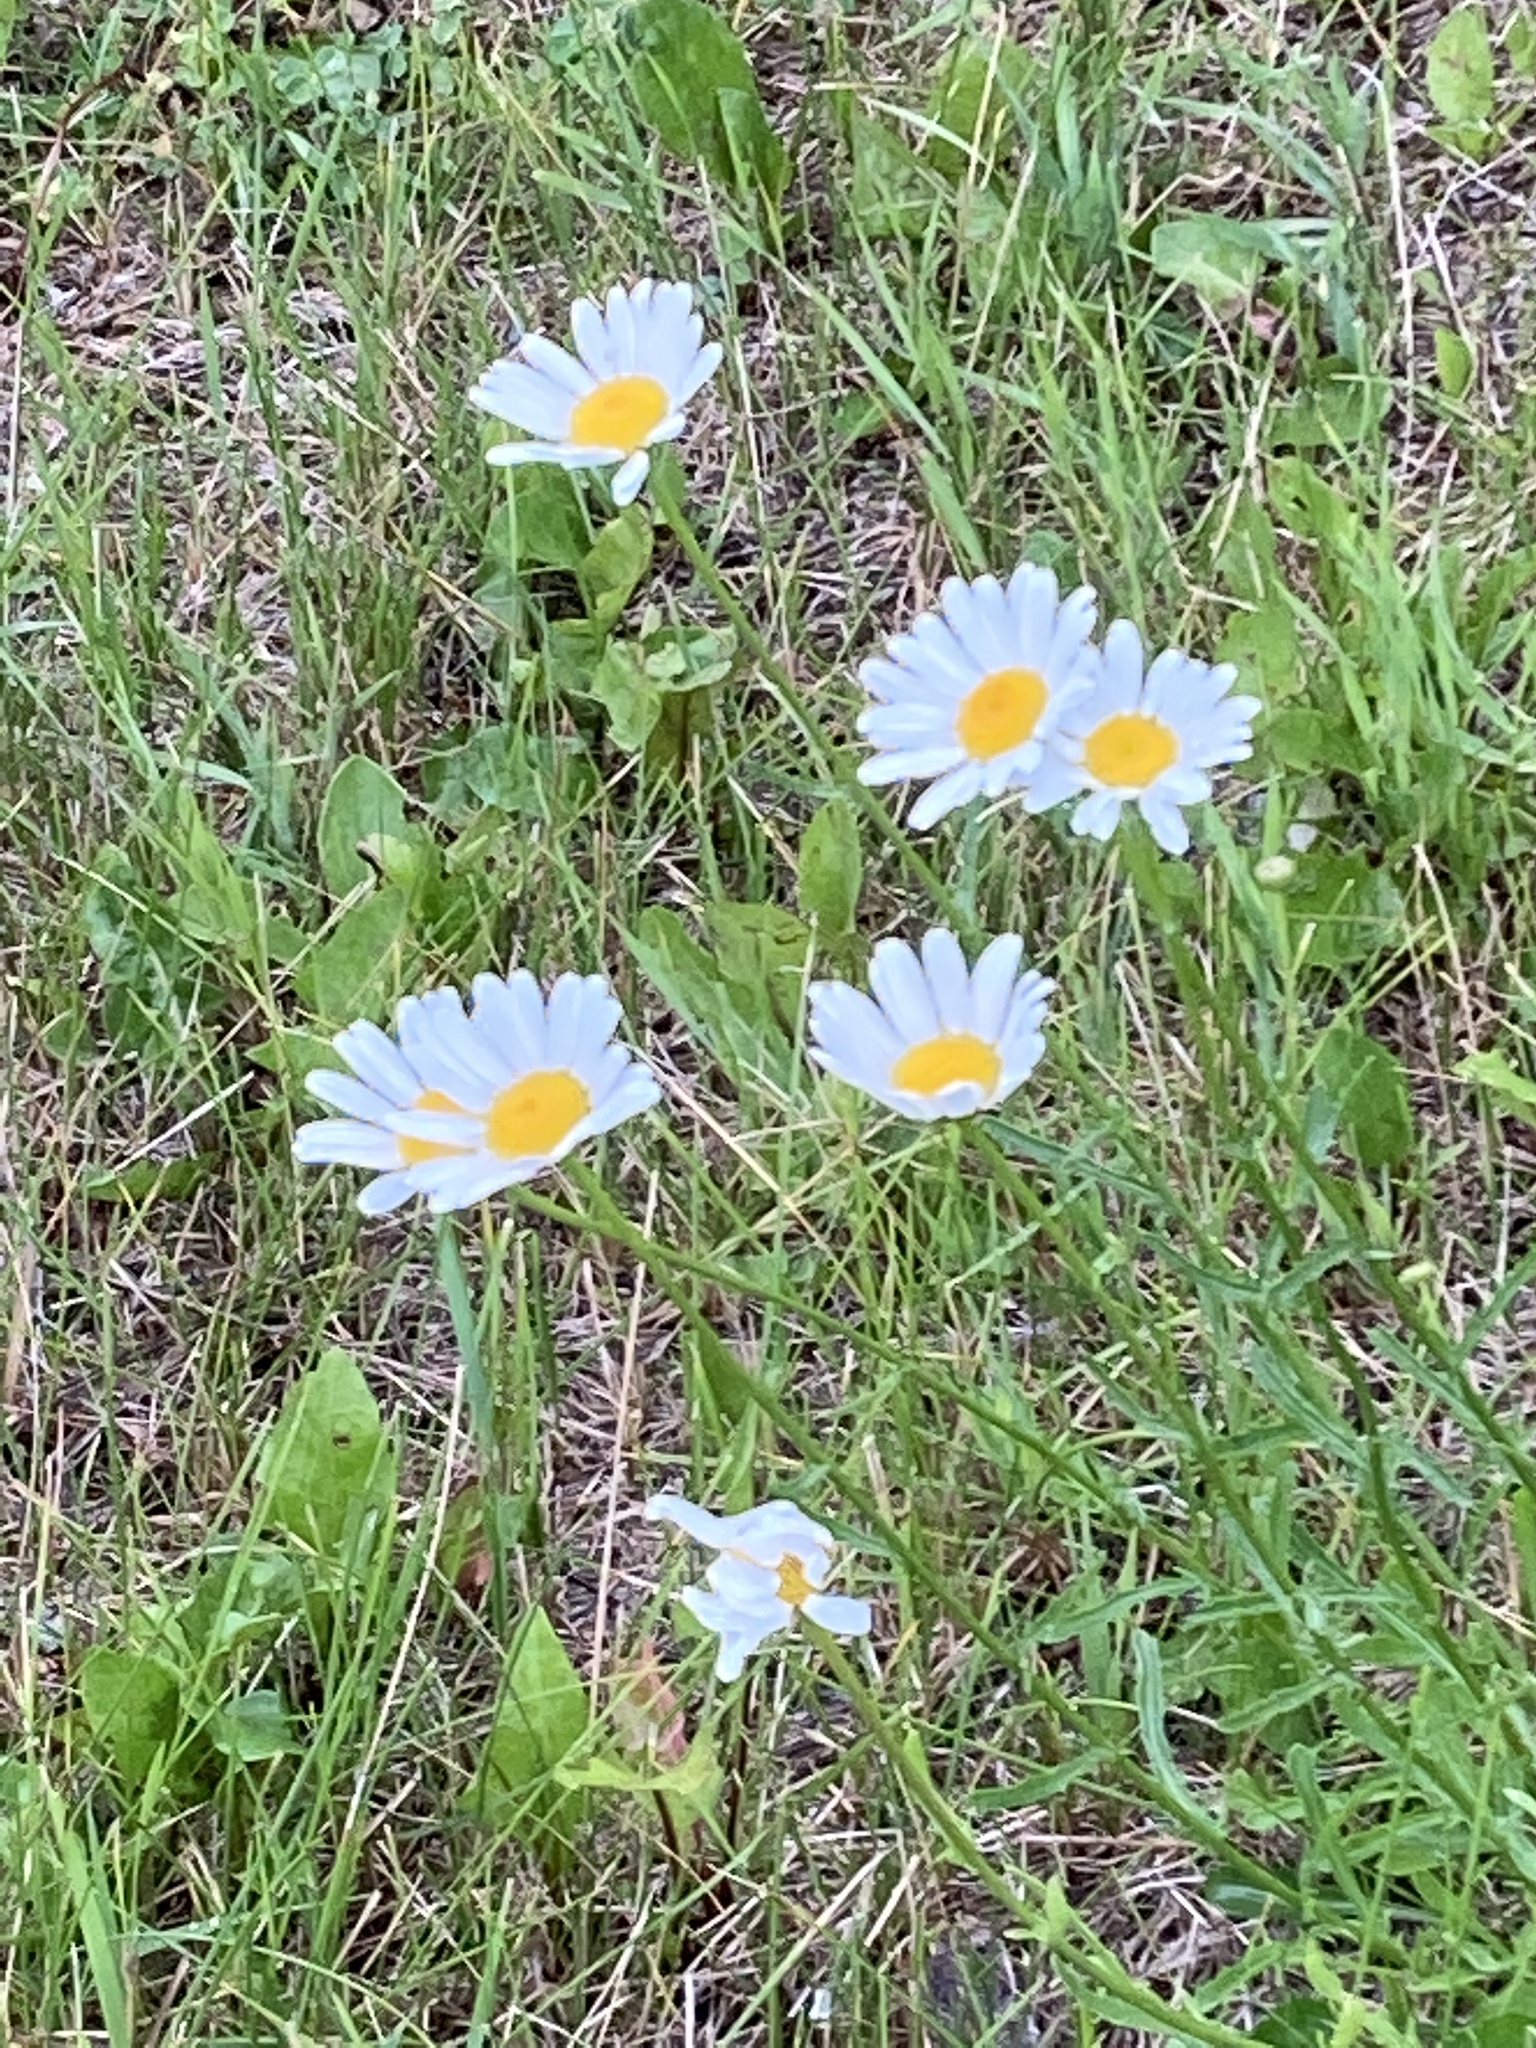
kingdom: Plantae
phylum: Tracheophyta
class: Magnoliopsida
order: Asterales
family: Asteraceae
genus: Leucanthemum
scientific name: Leucanthemum vulgare
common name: Oxeye daisy
